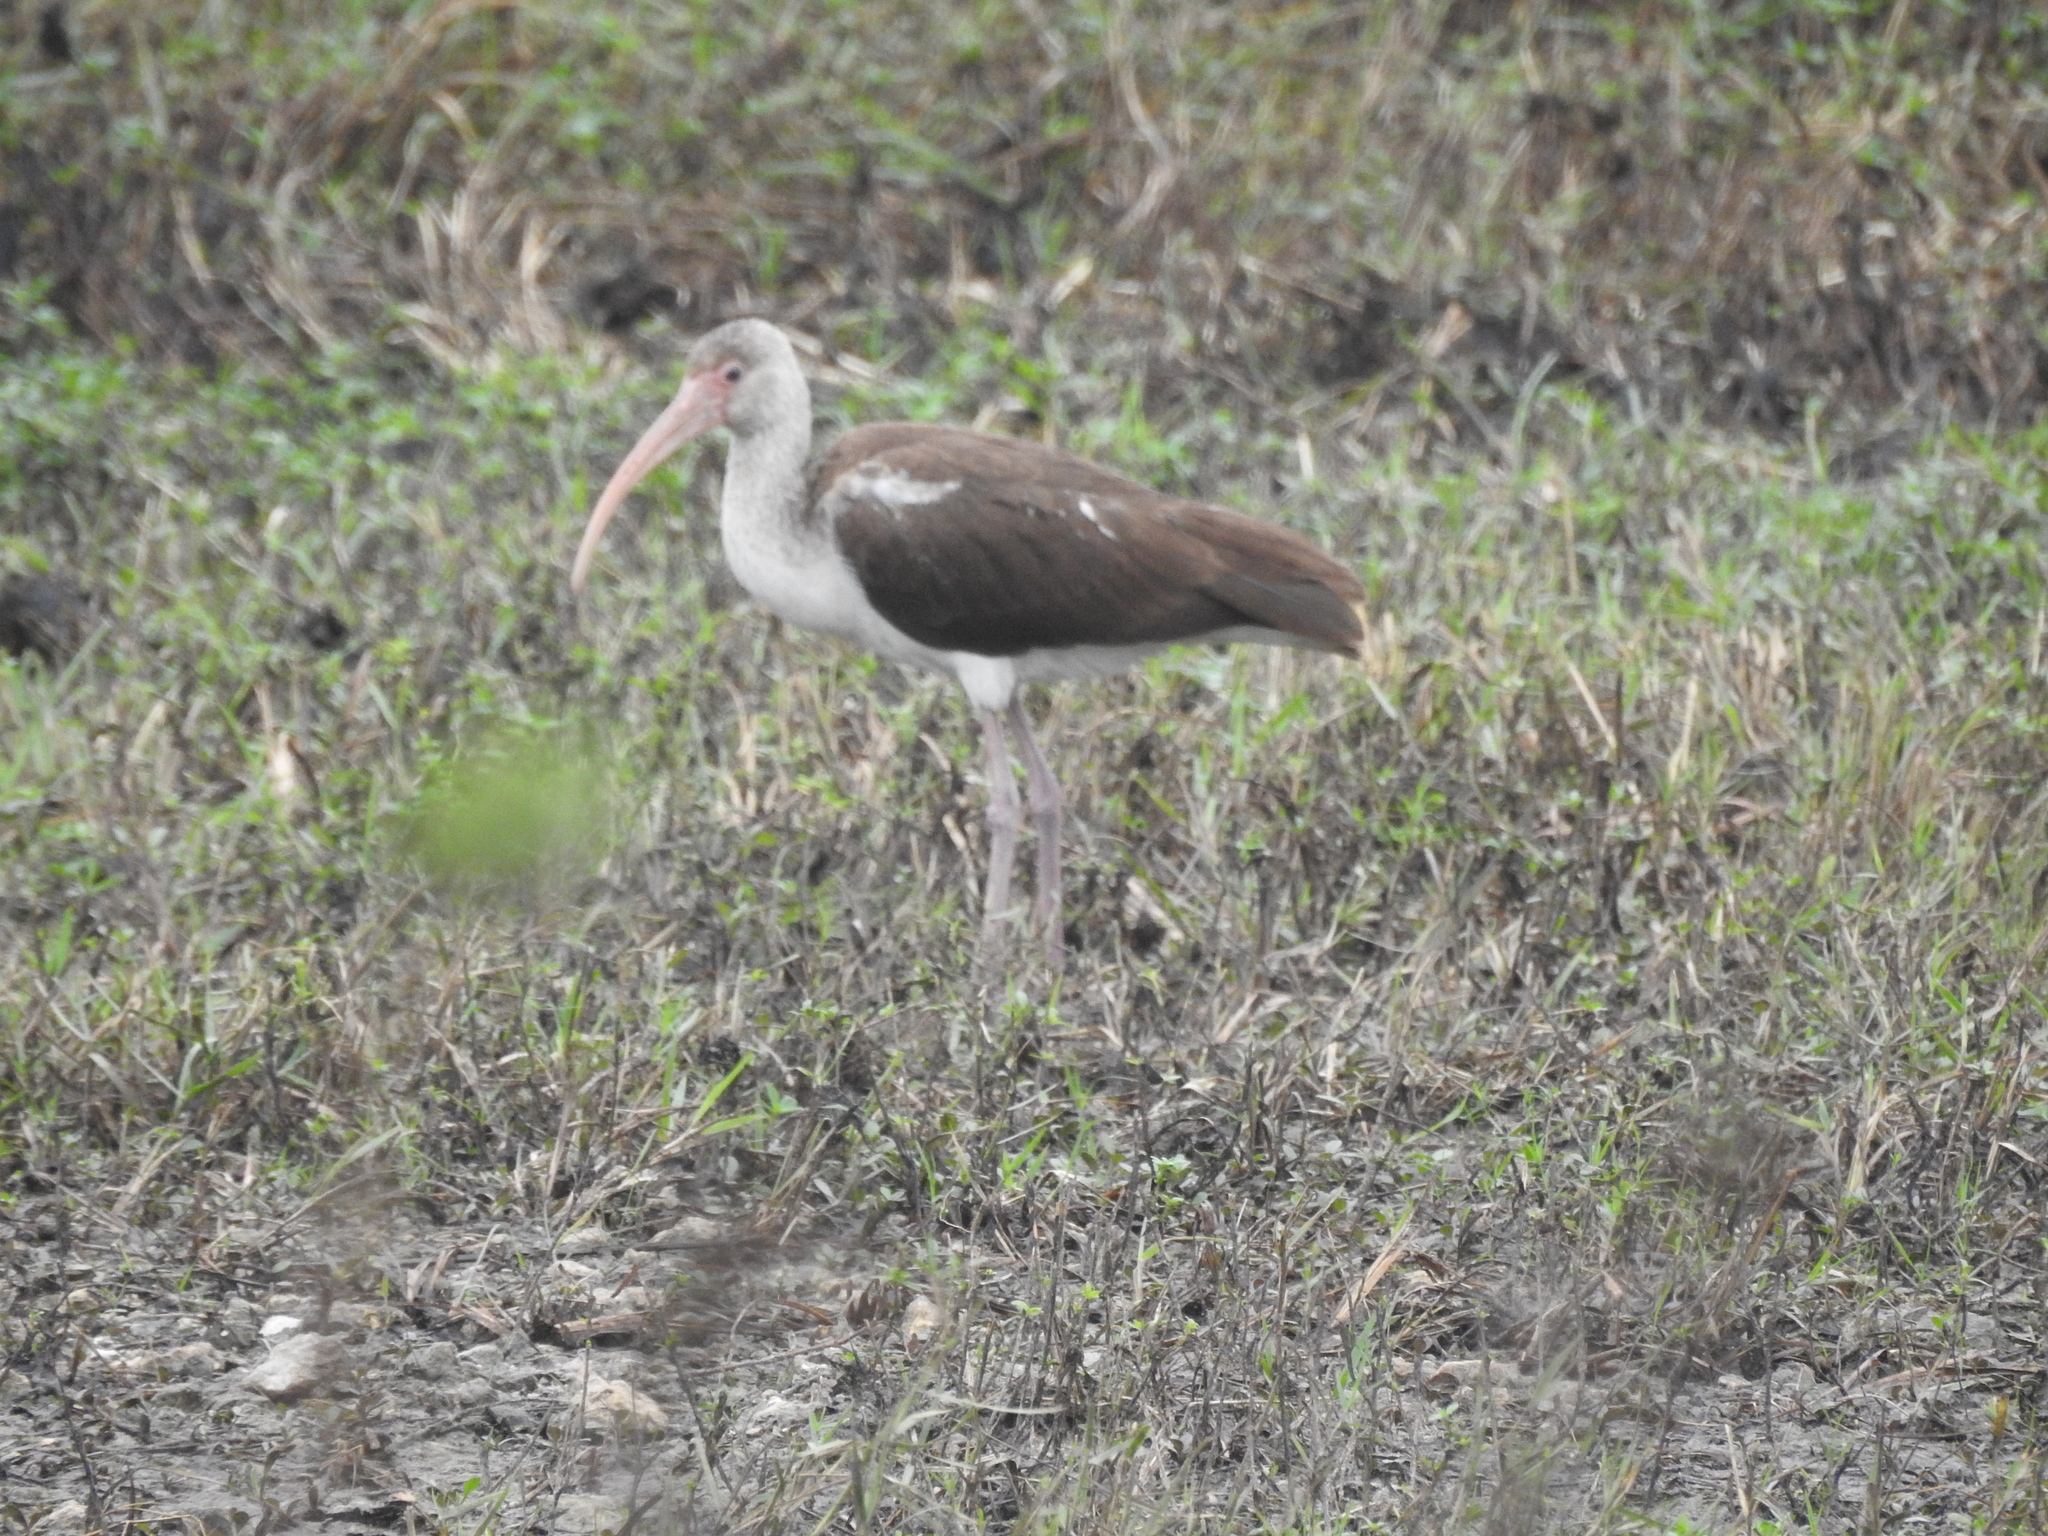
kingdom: Animalia
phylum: Chordata
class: Aves
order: Pelecaniformes
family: Threskiornithidae
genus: Eudocimus
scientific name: Eudocimus albus
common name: White ibis
